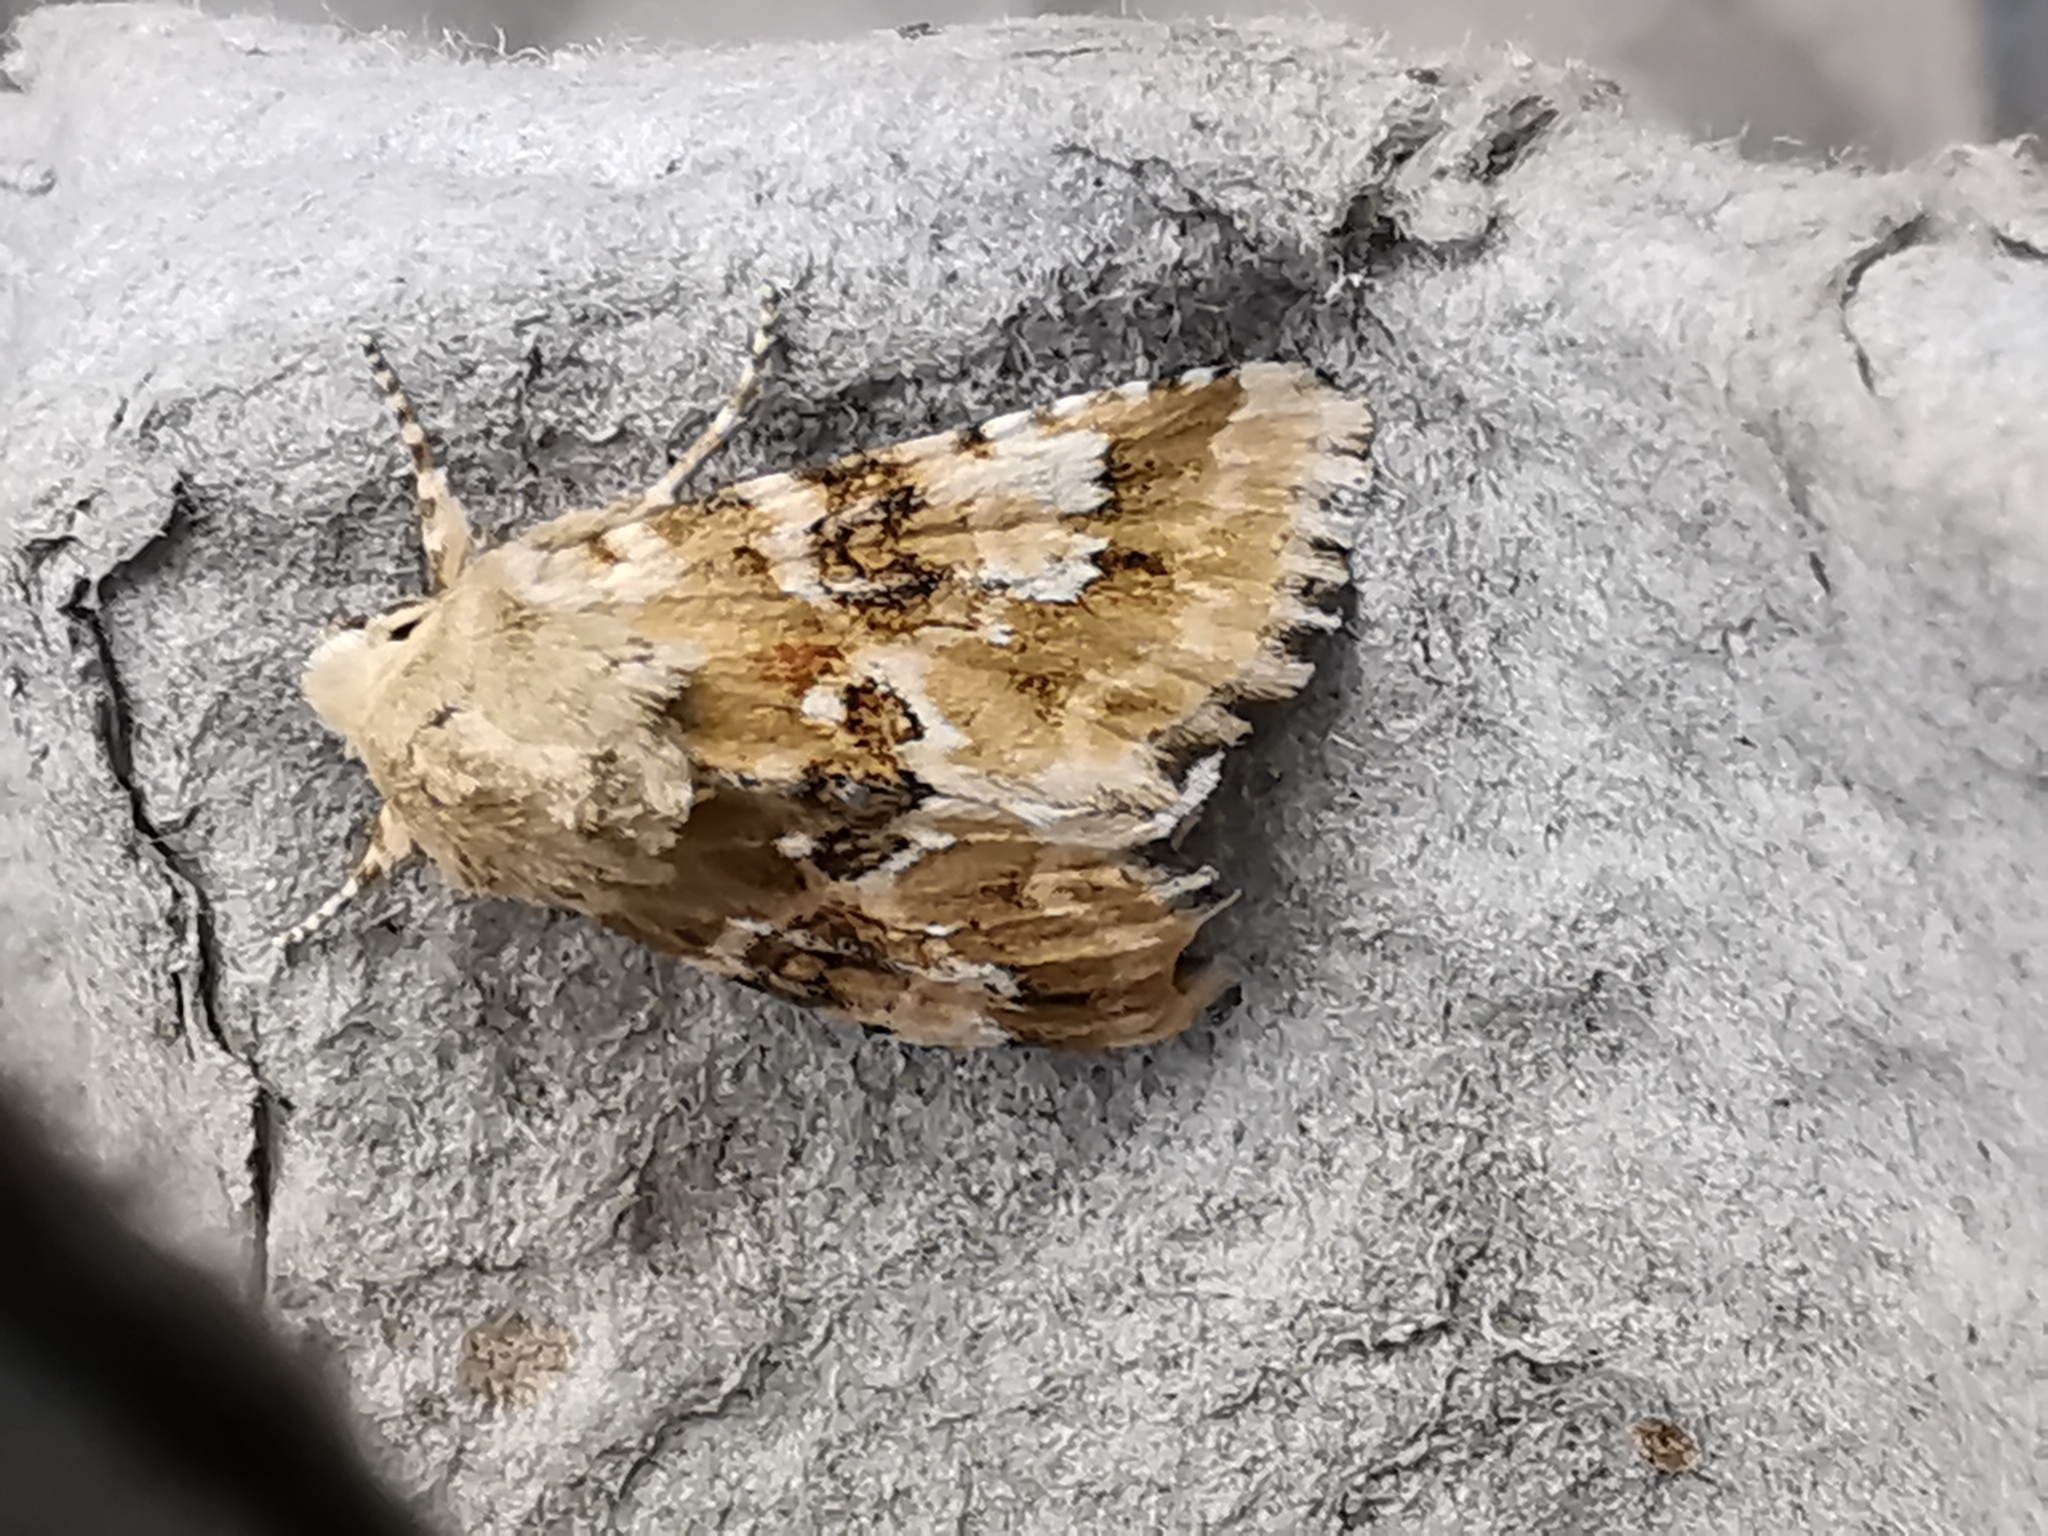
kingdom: Animalia
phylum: Arthropoda
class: Insecta
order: Lepidoptera
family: Noctuidae
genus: Eremobia
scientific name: Eremobia ochroleuca
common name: Dusky sallow
